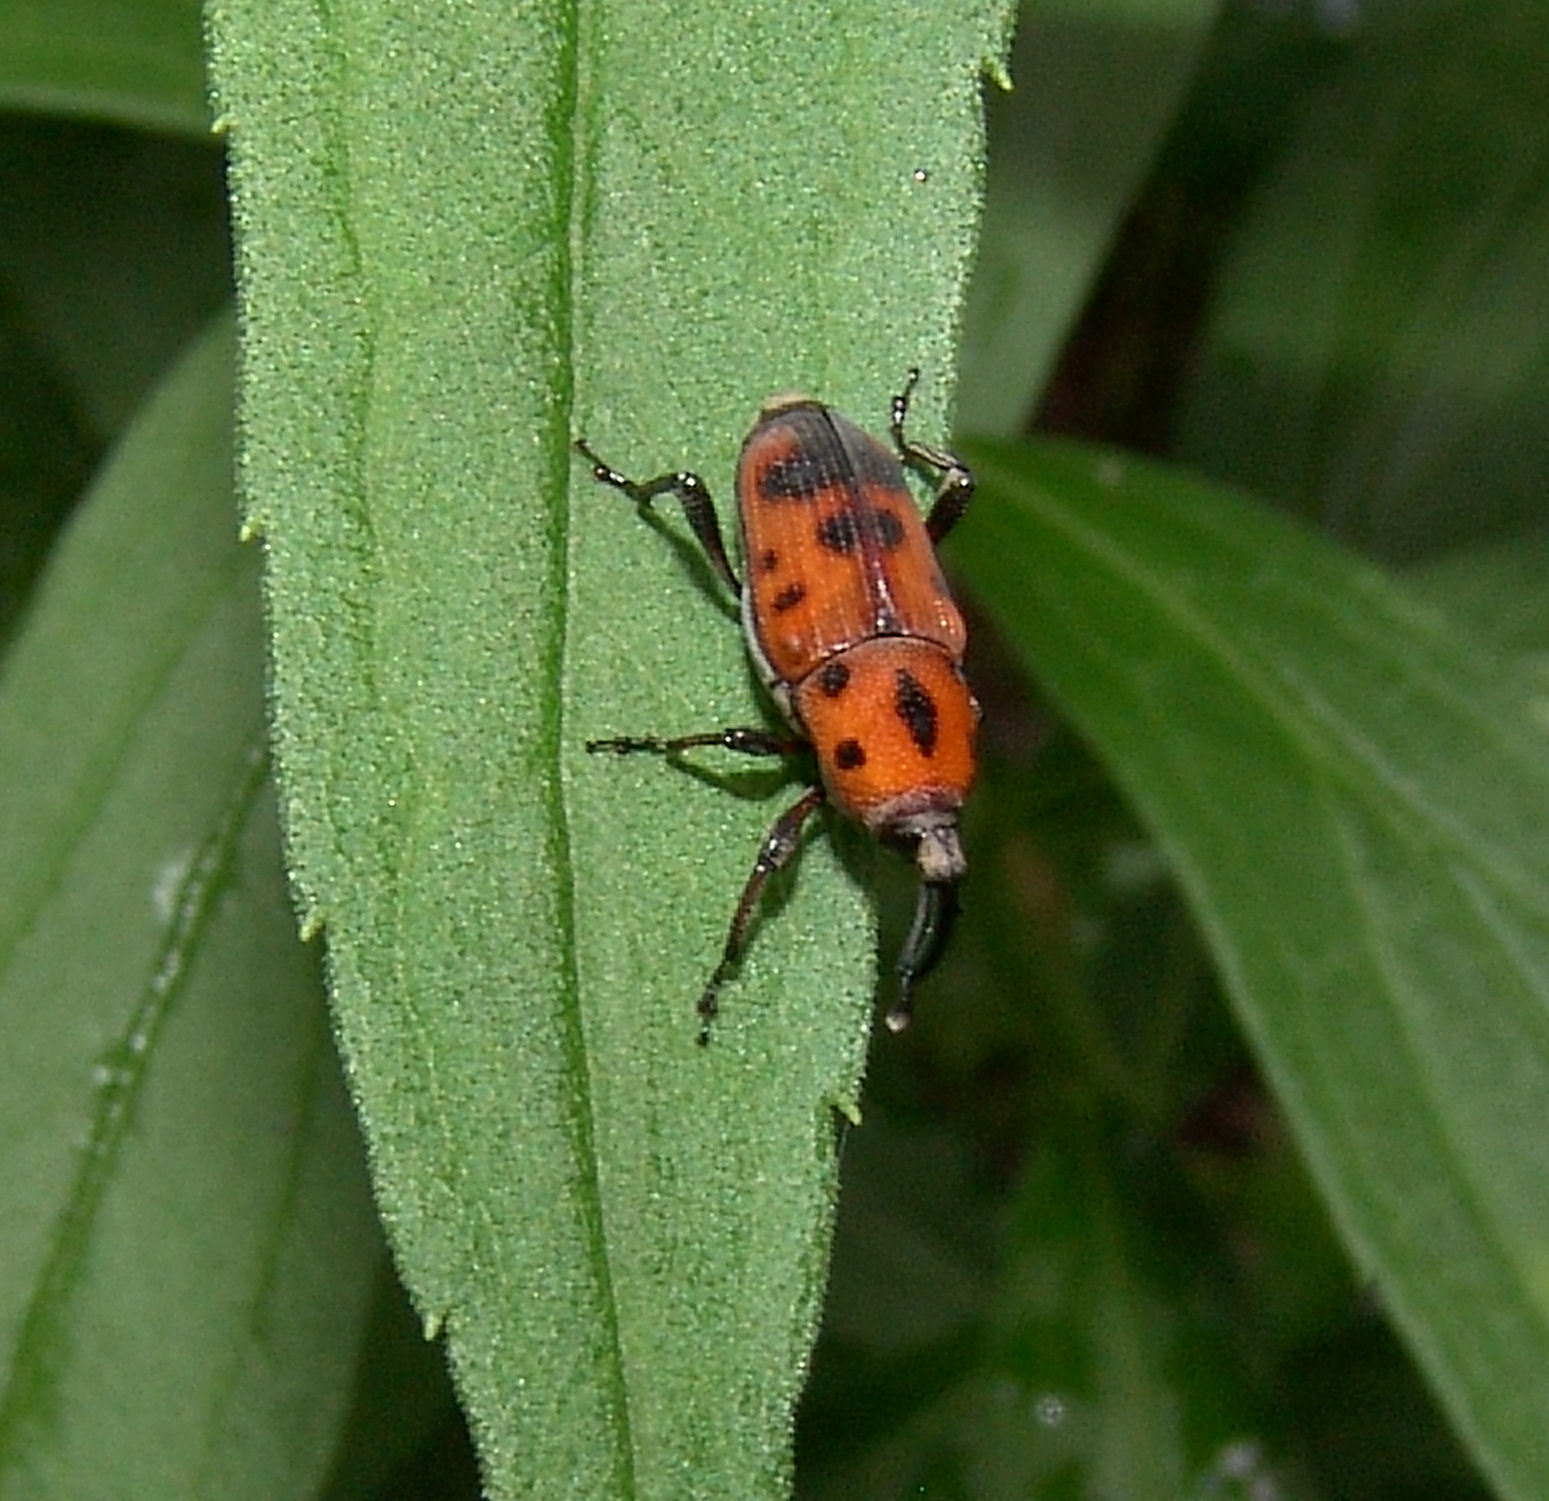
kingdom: Animalia
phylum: Arthropoda
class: Insecta
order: Coleoptera
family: Dryophthoridae
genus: Rhodobaenus
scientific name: Rhodobaenus quinquepunctatus
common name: Cocklebur weevil
